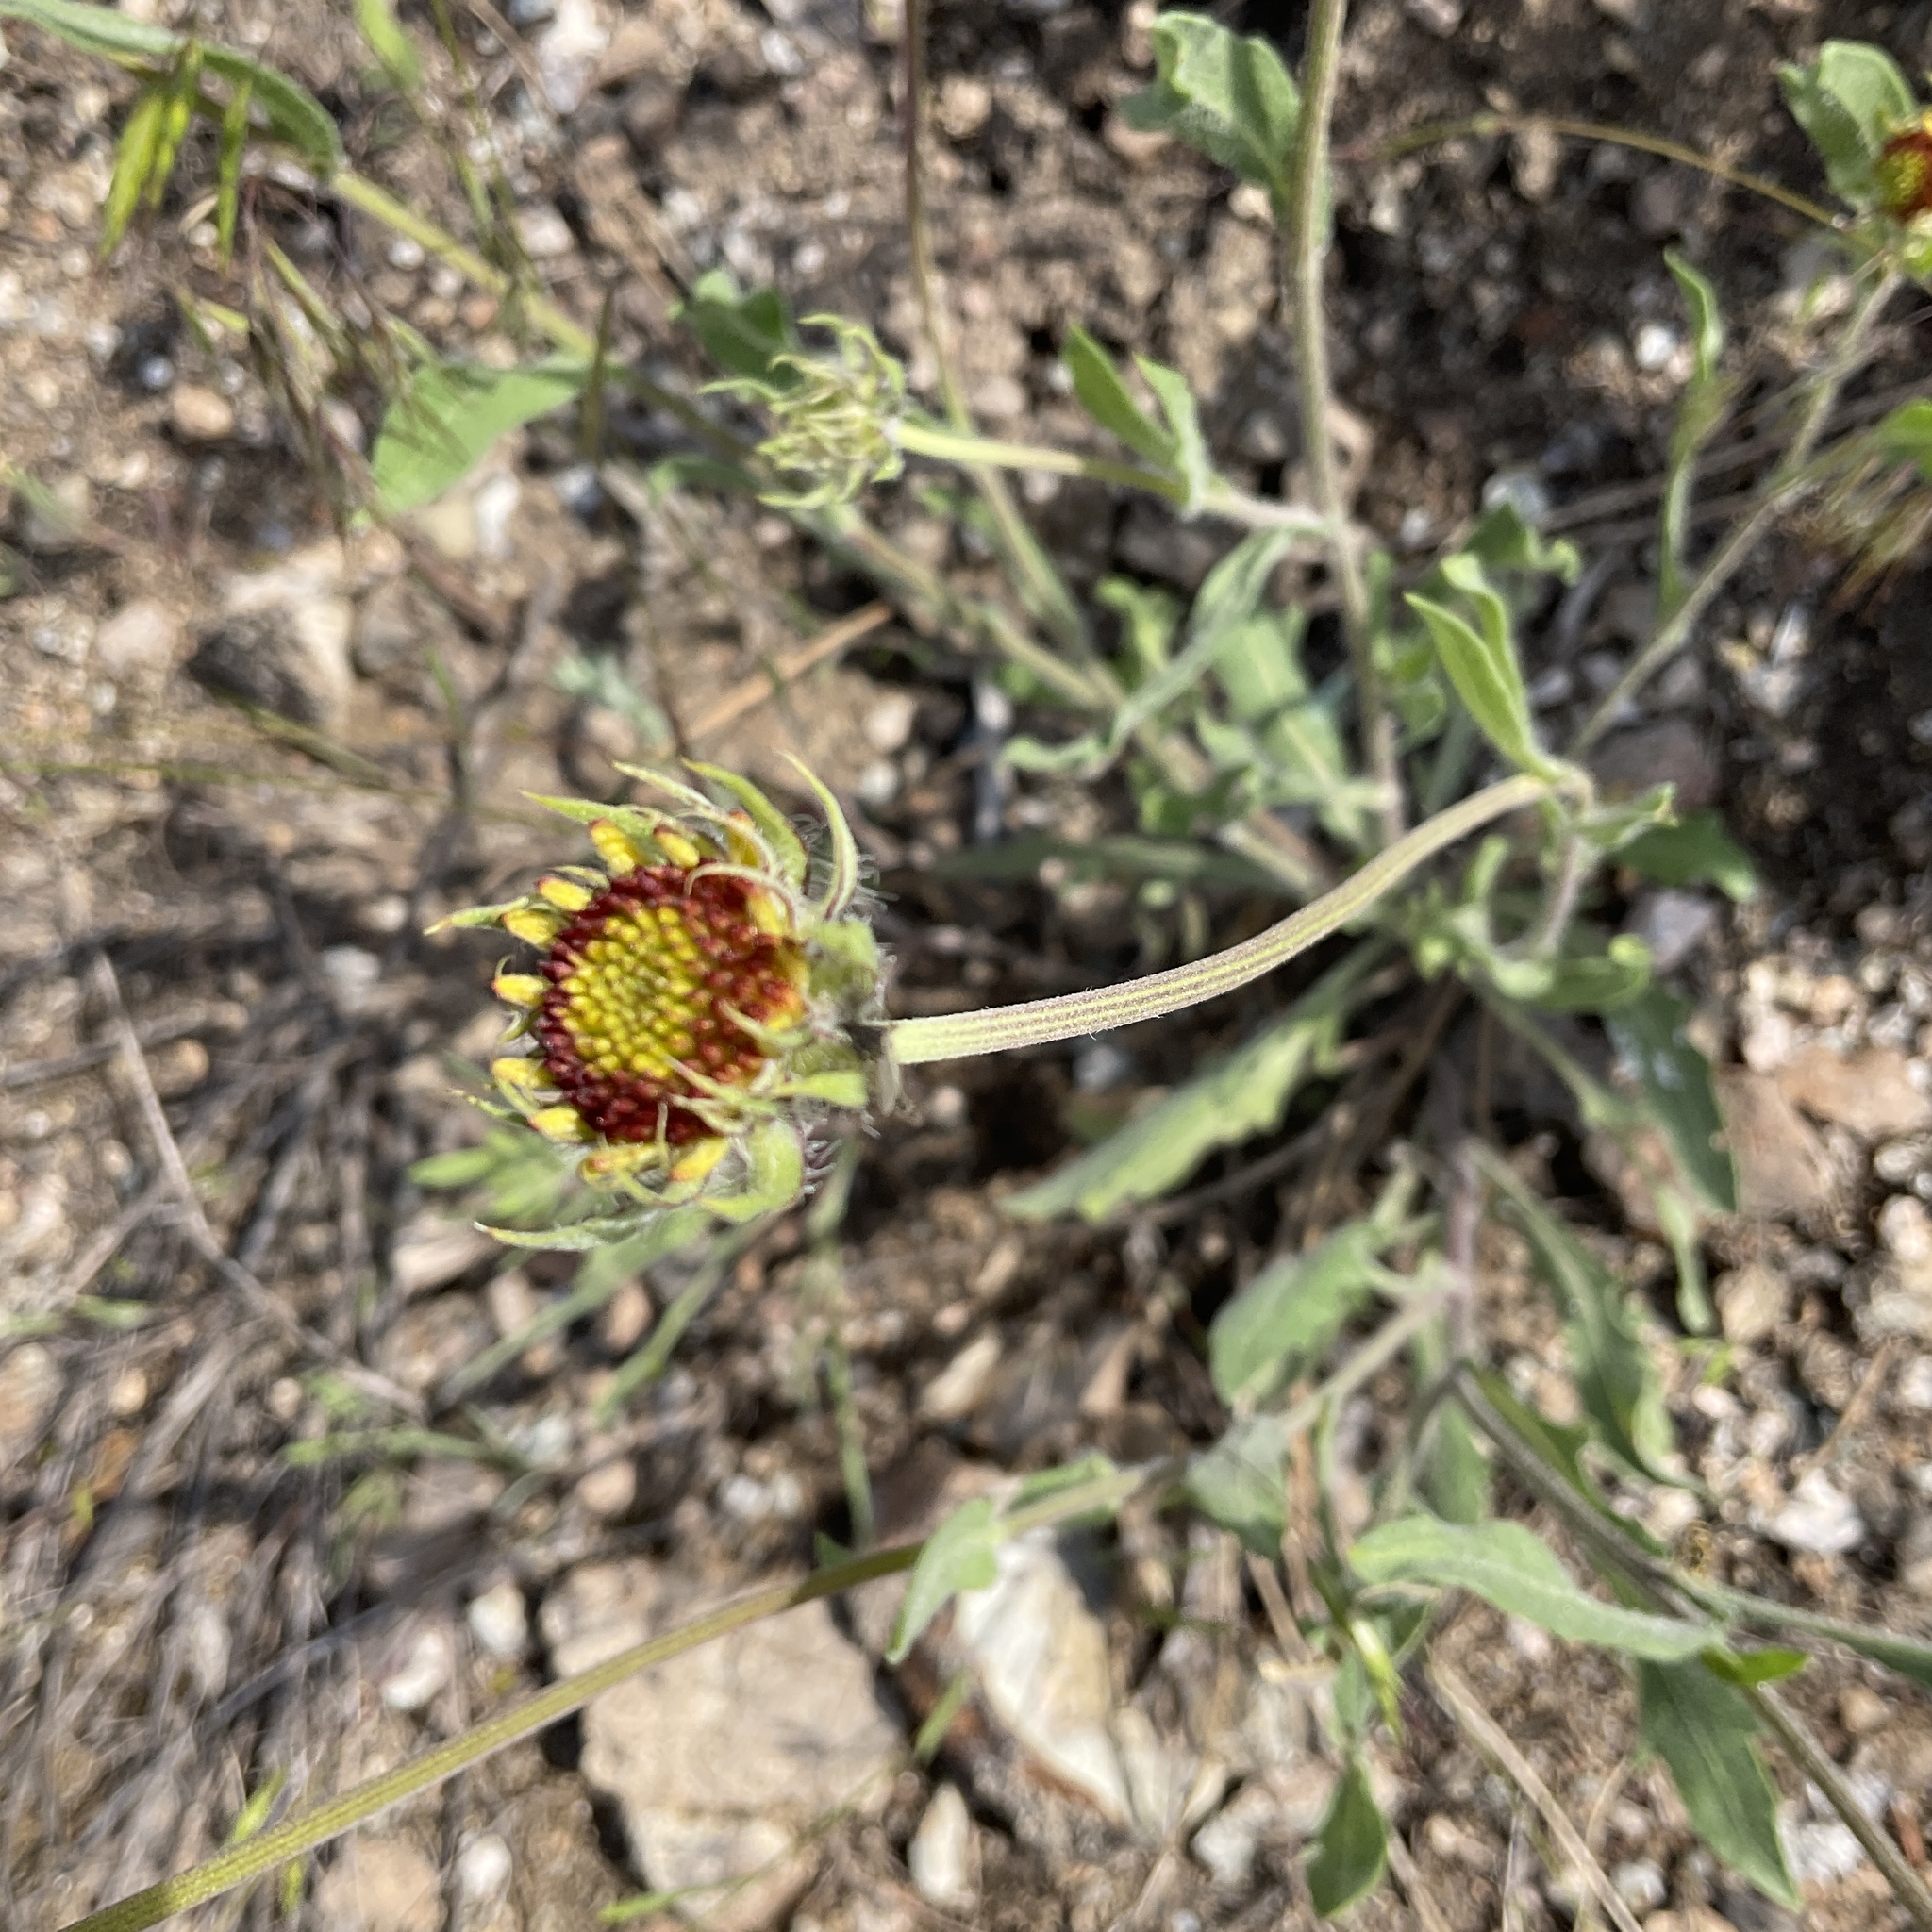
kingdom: Plantae
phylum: Tracheophyta
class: Magnoliopsida
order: Asterales
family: Asteraceae
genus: Gaillardia
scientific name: Gaillardia aristata
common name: Blanket-flower
